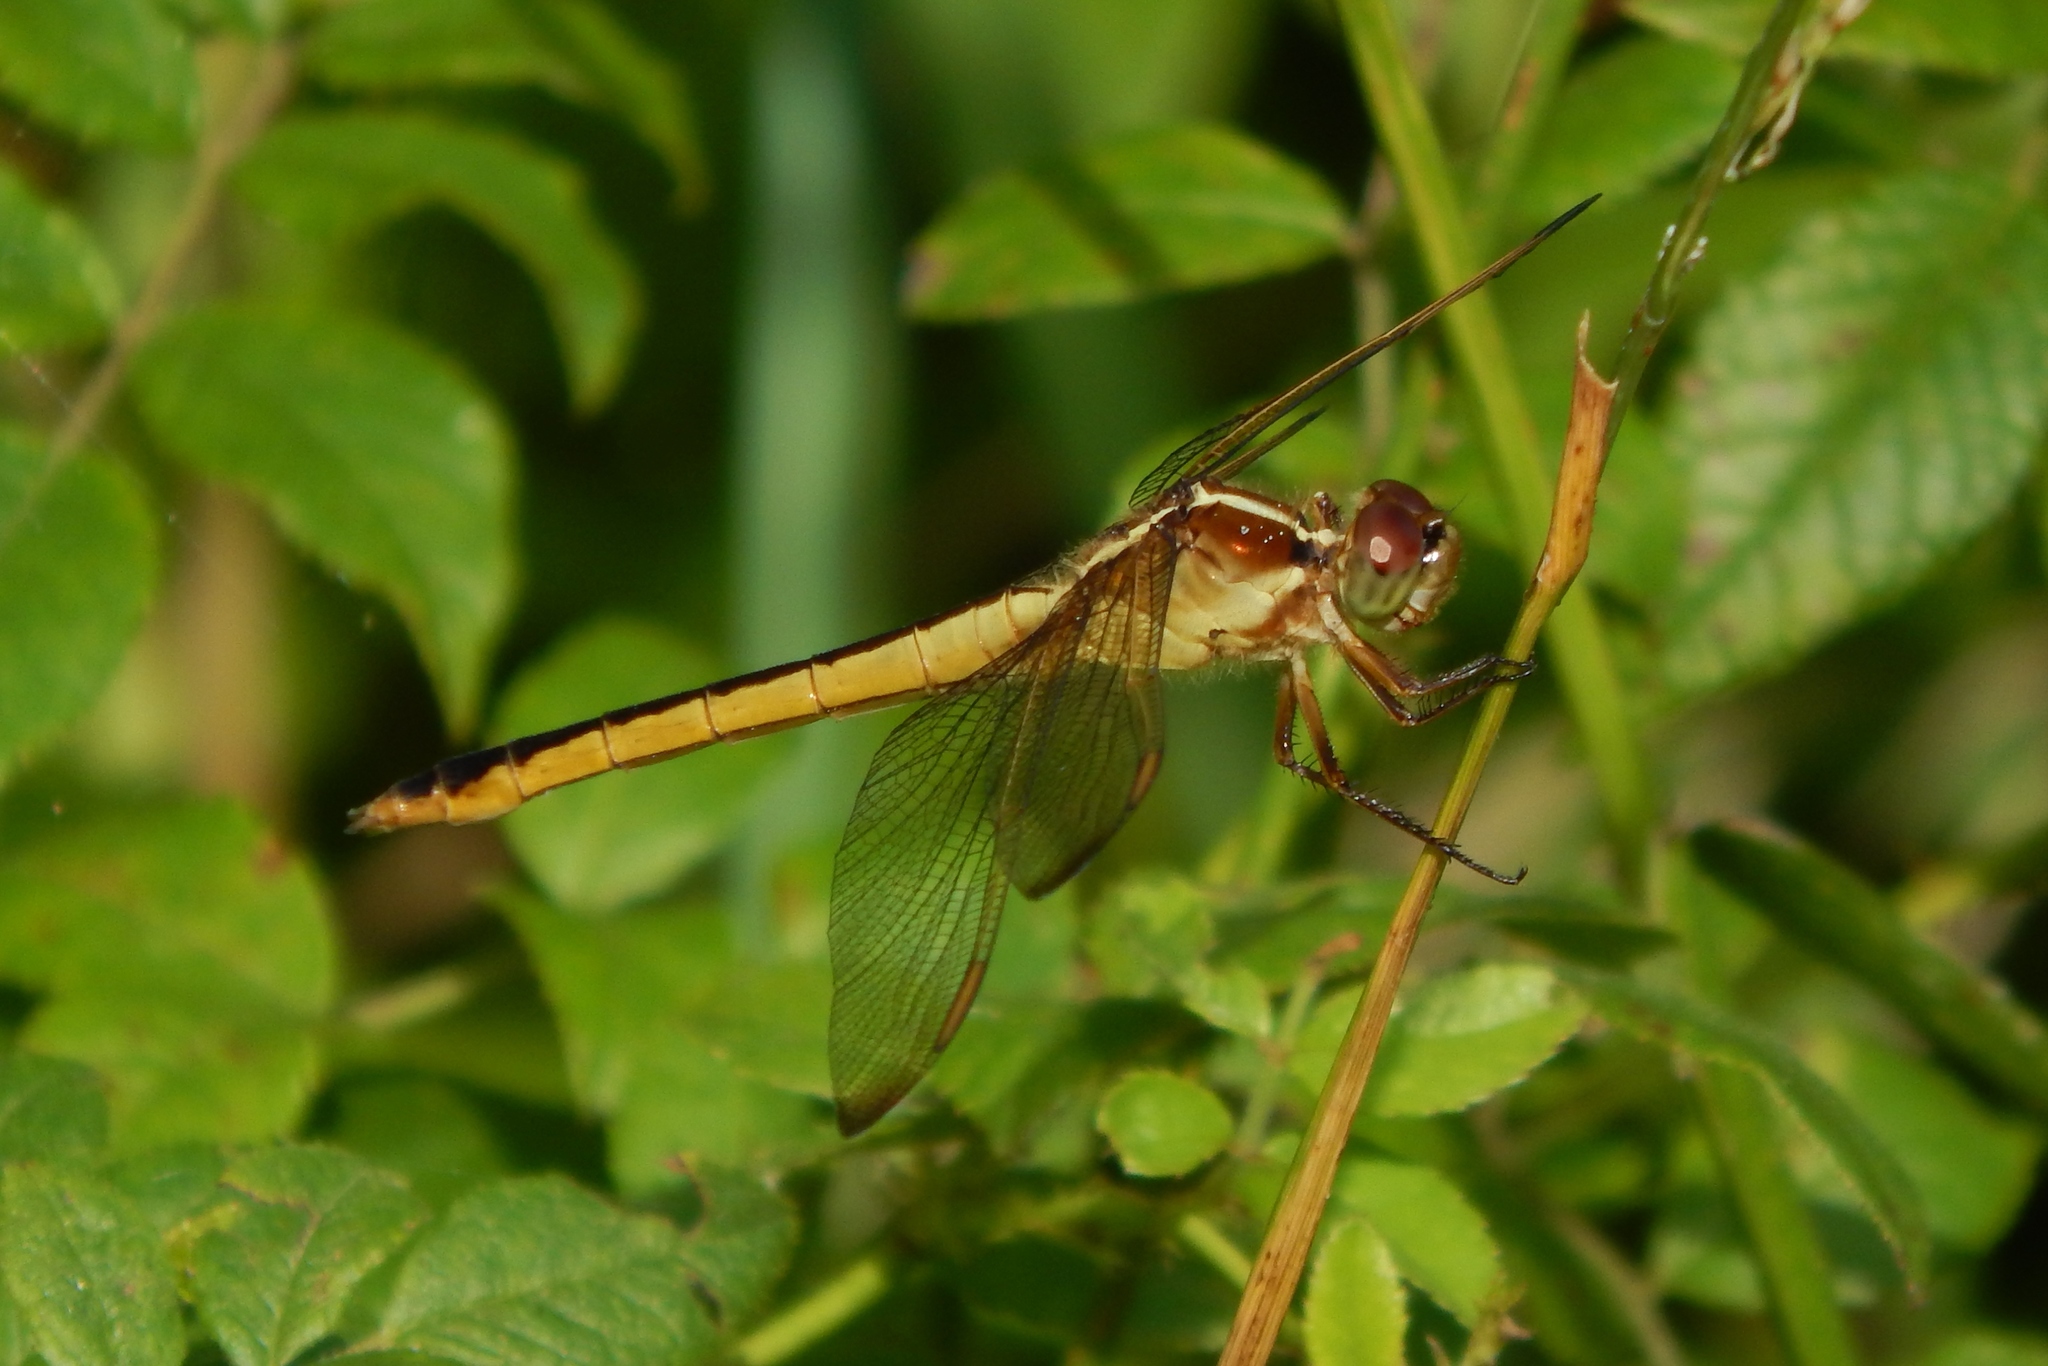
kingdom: Animalia
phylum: Arthropoda
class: Insecta
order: Odonata
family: Libellulidae
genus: Libellula
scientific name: Libellula needhami
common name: Needham's skimmer
